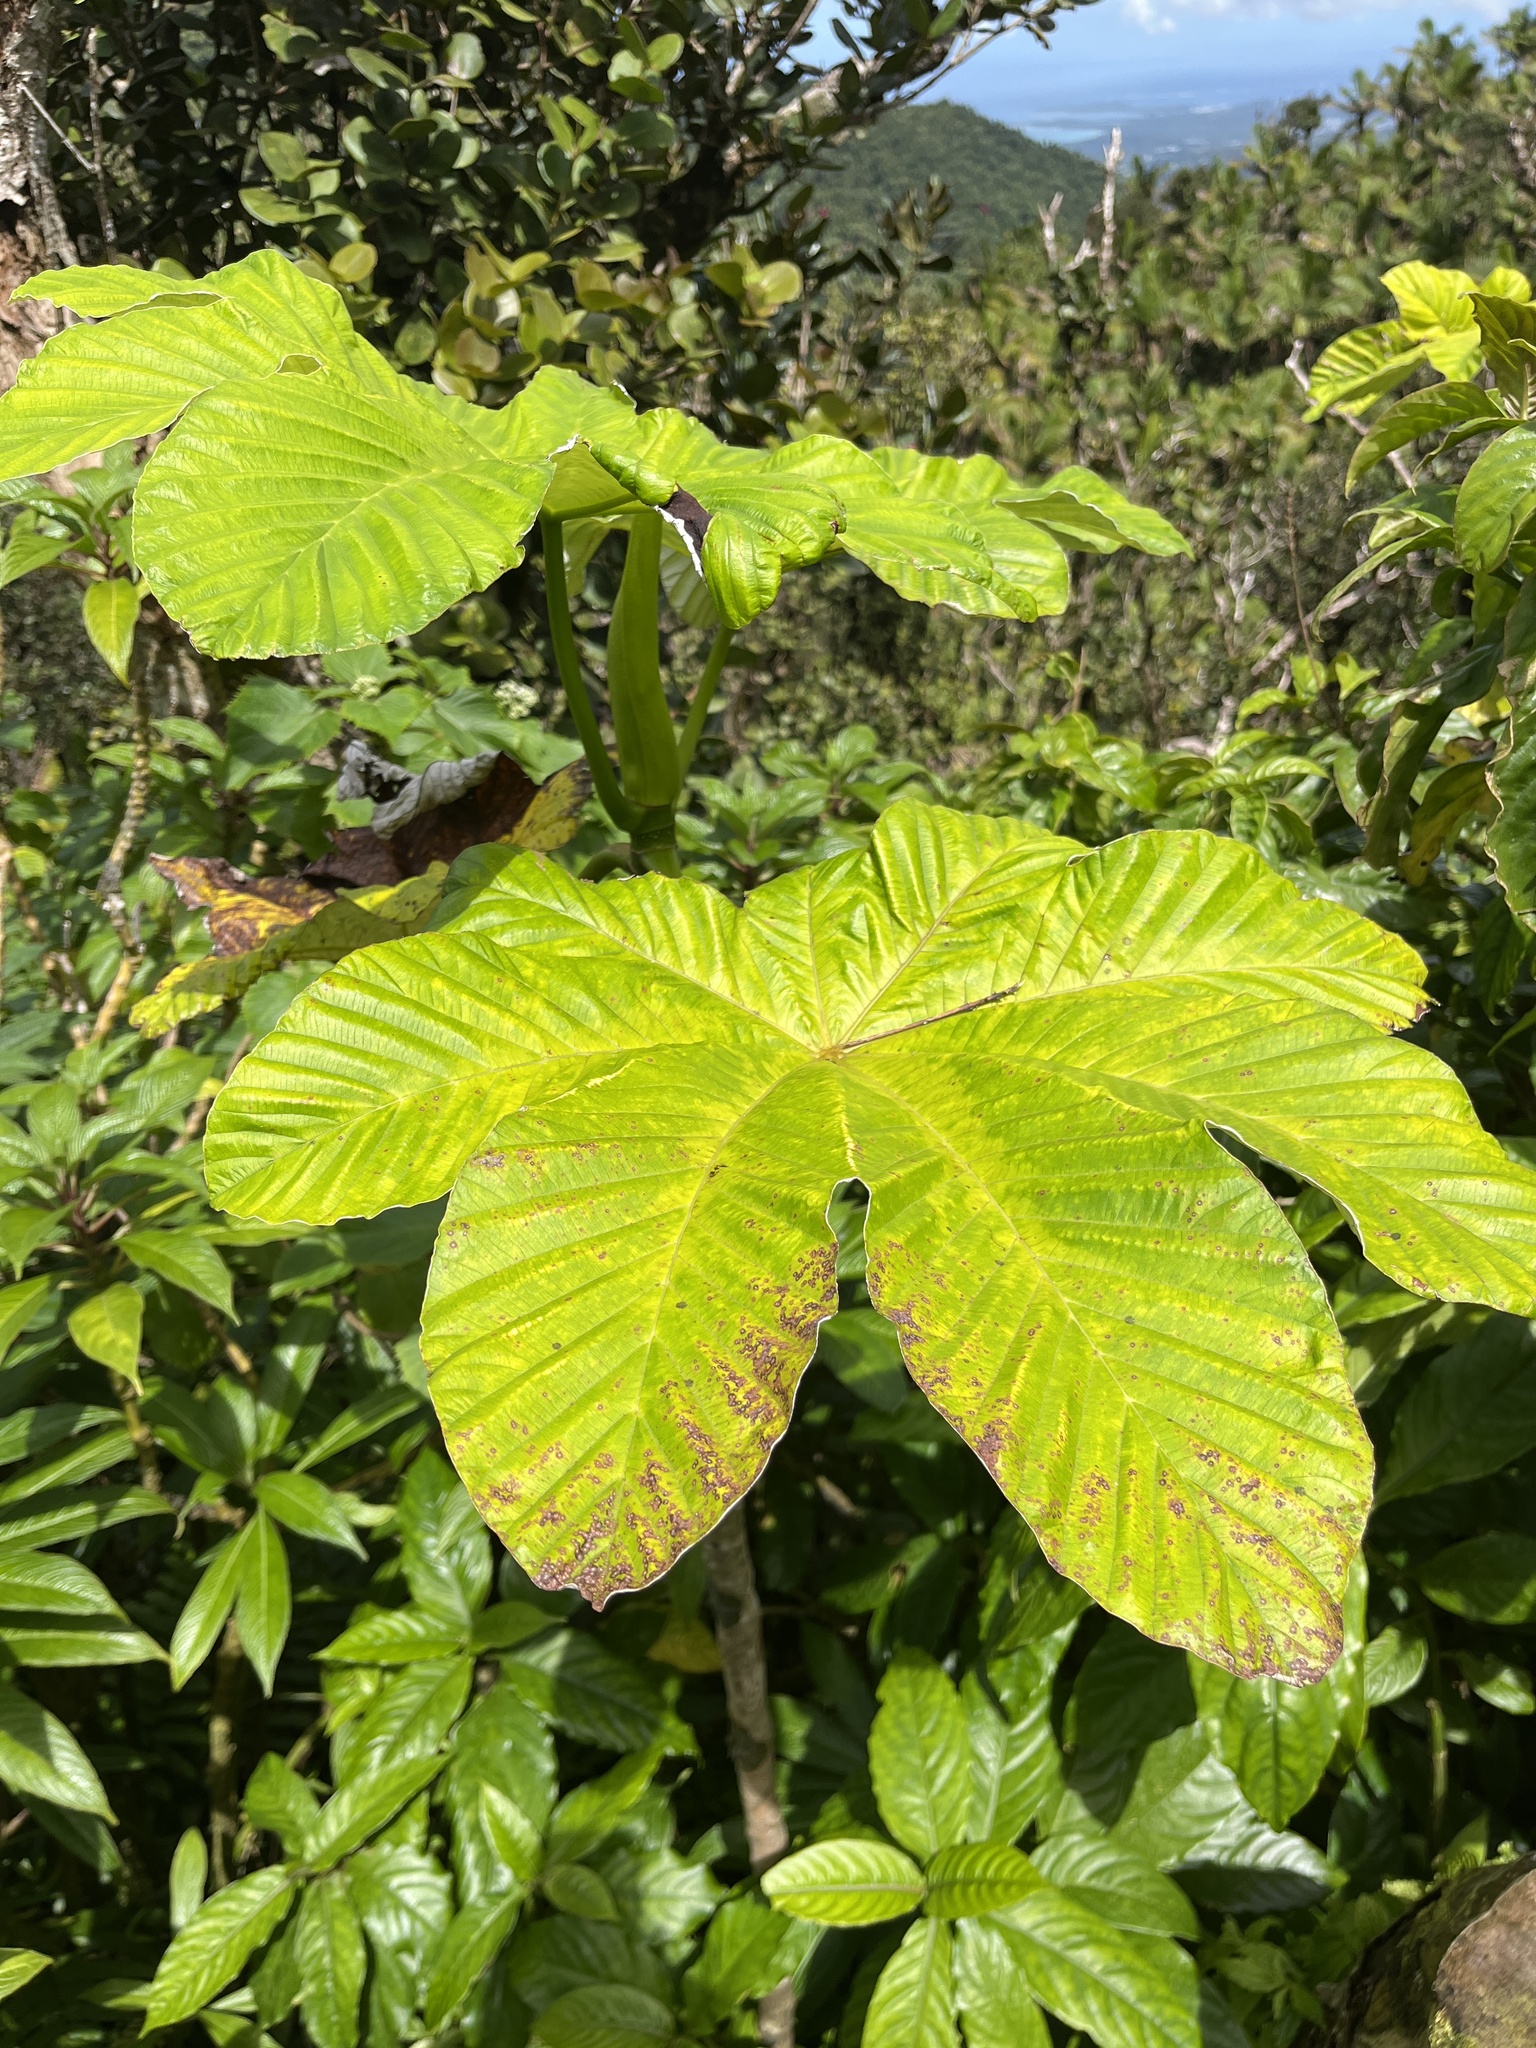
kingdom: Plantae
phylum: Tracheophyta
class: Magnoliopsida
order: Rosales
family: Urticaceae
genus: Cecropia
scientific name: Cecropia schreberiana
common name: Trumpet tree
